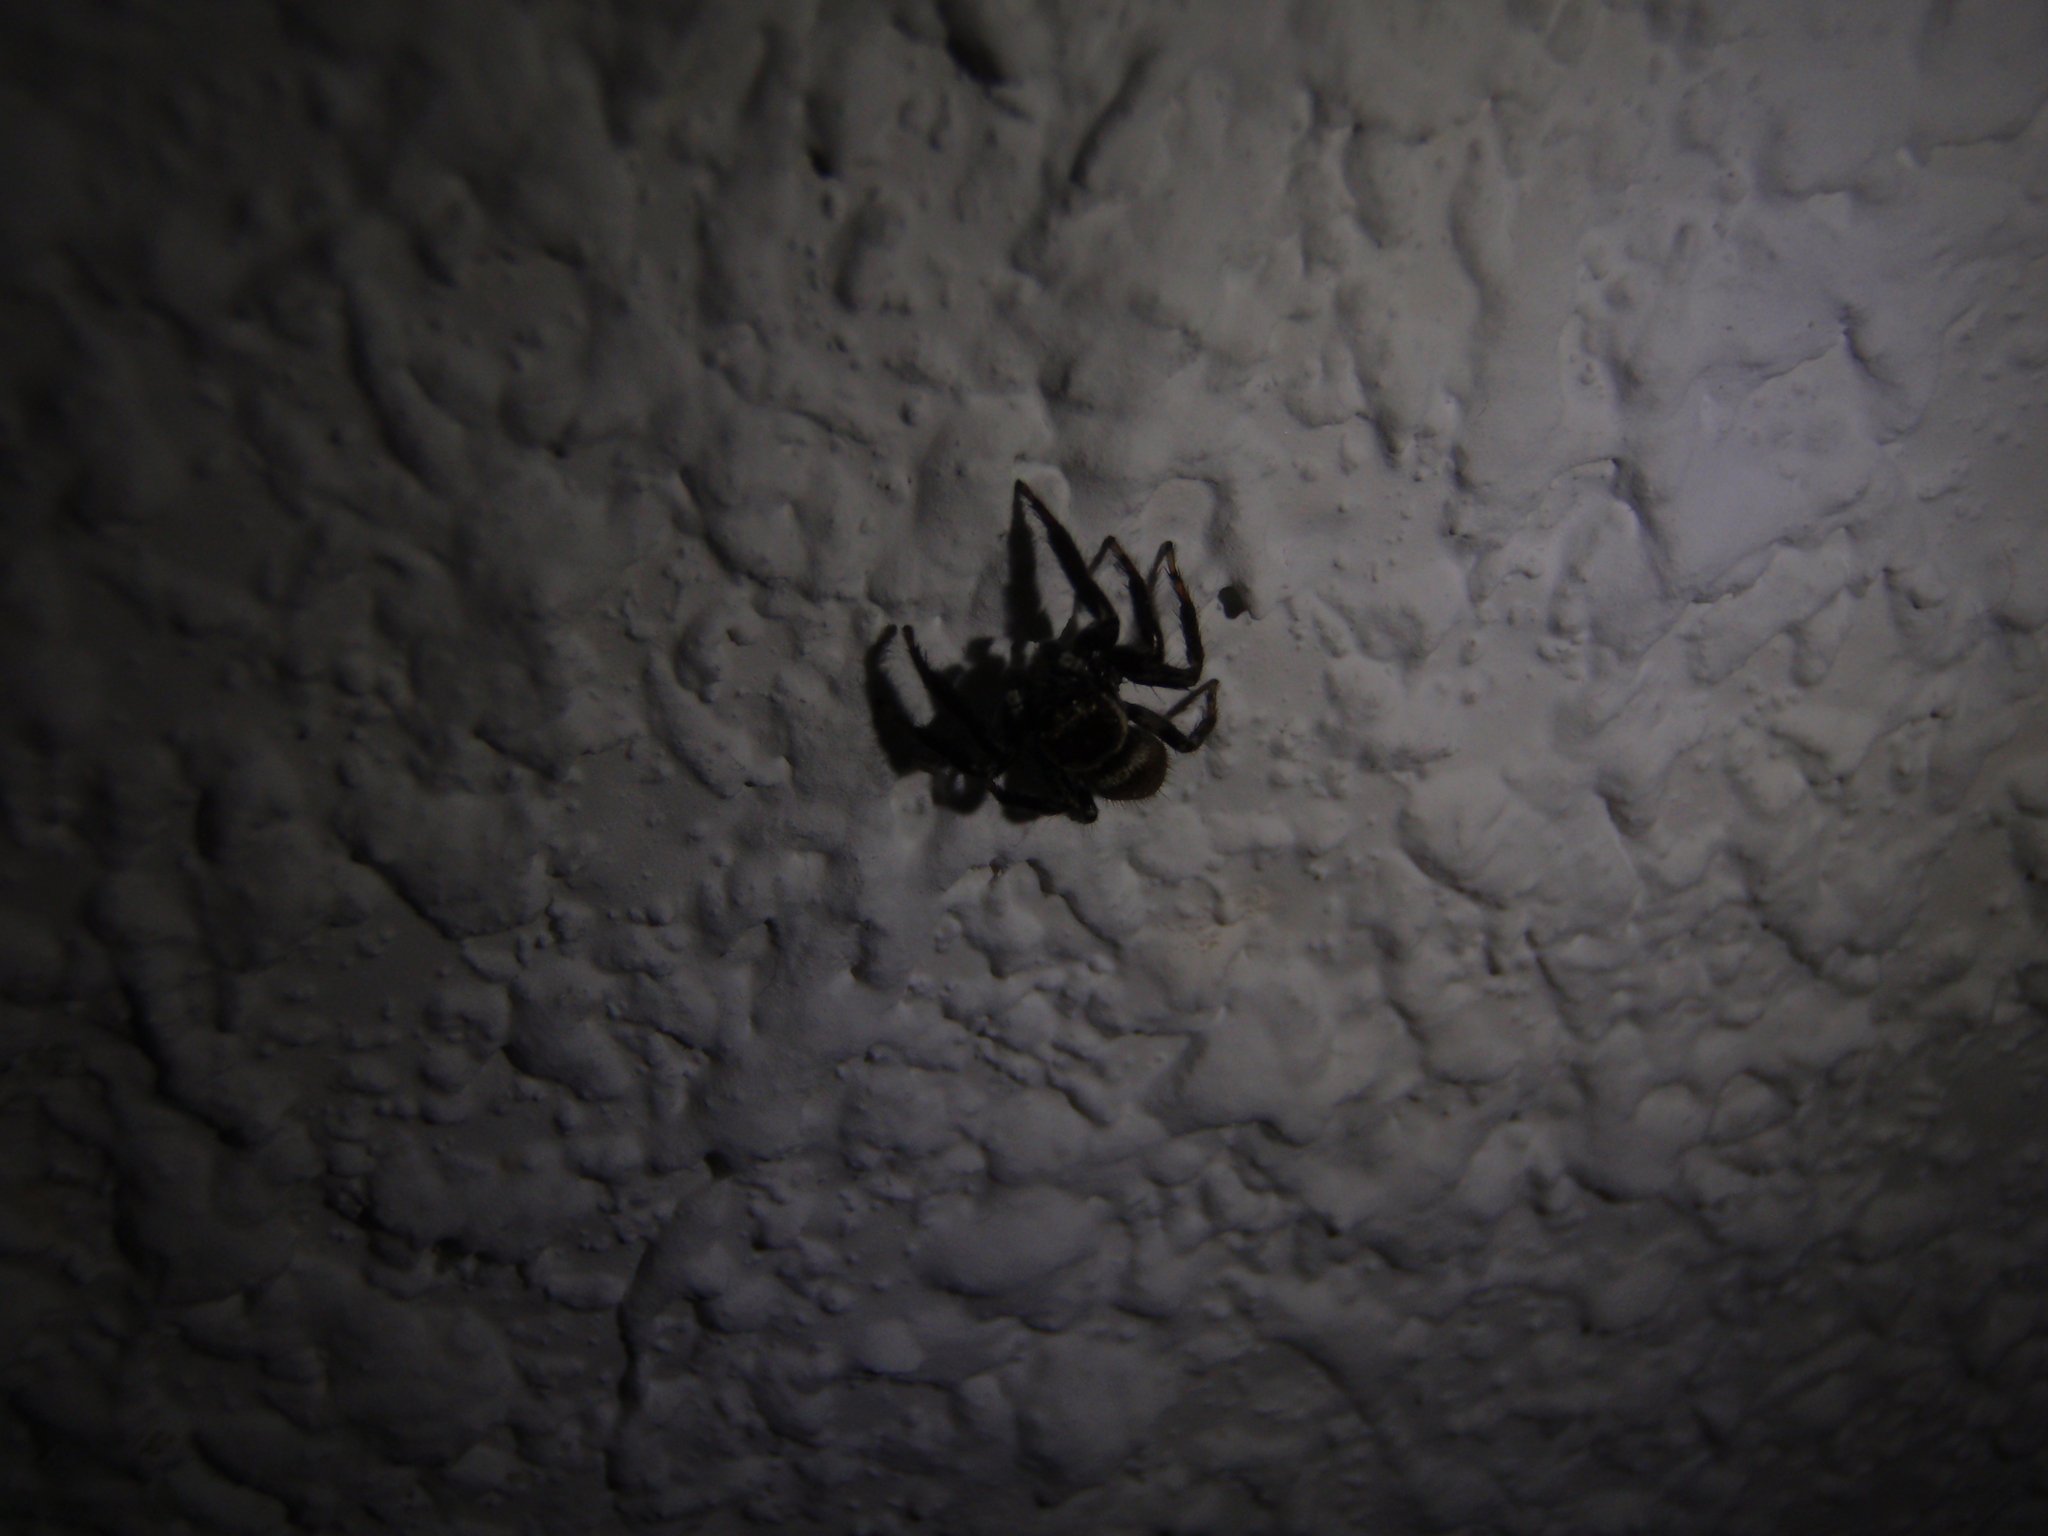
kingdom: Animalia
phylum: Arthropoda
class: Arachnida
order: Araneae
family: Salticidae
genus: Evarcha
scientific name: Evarcha jucunda
